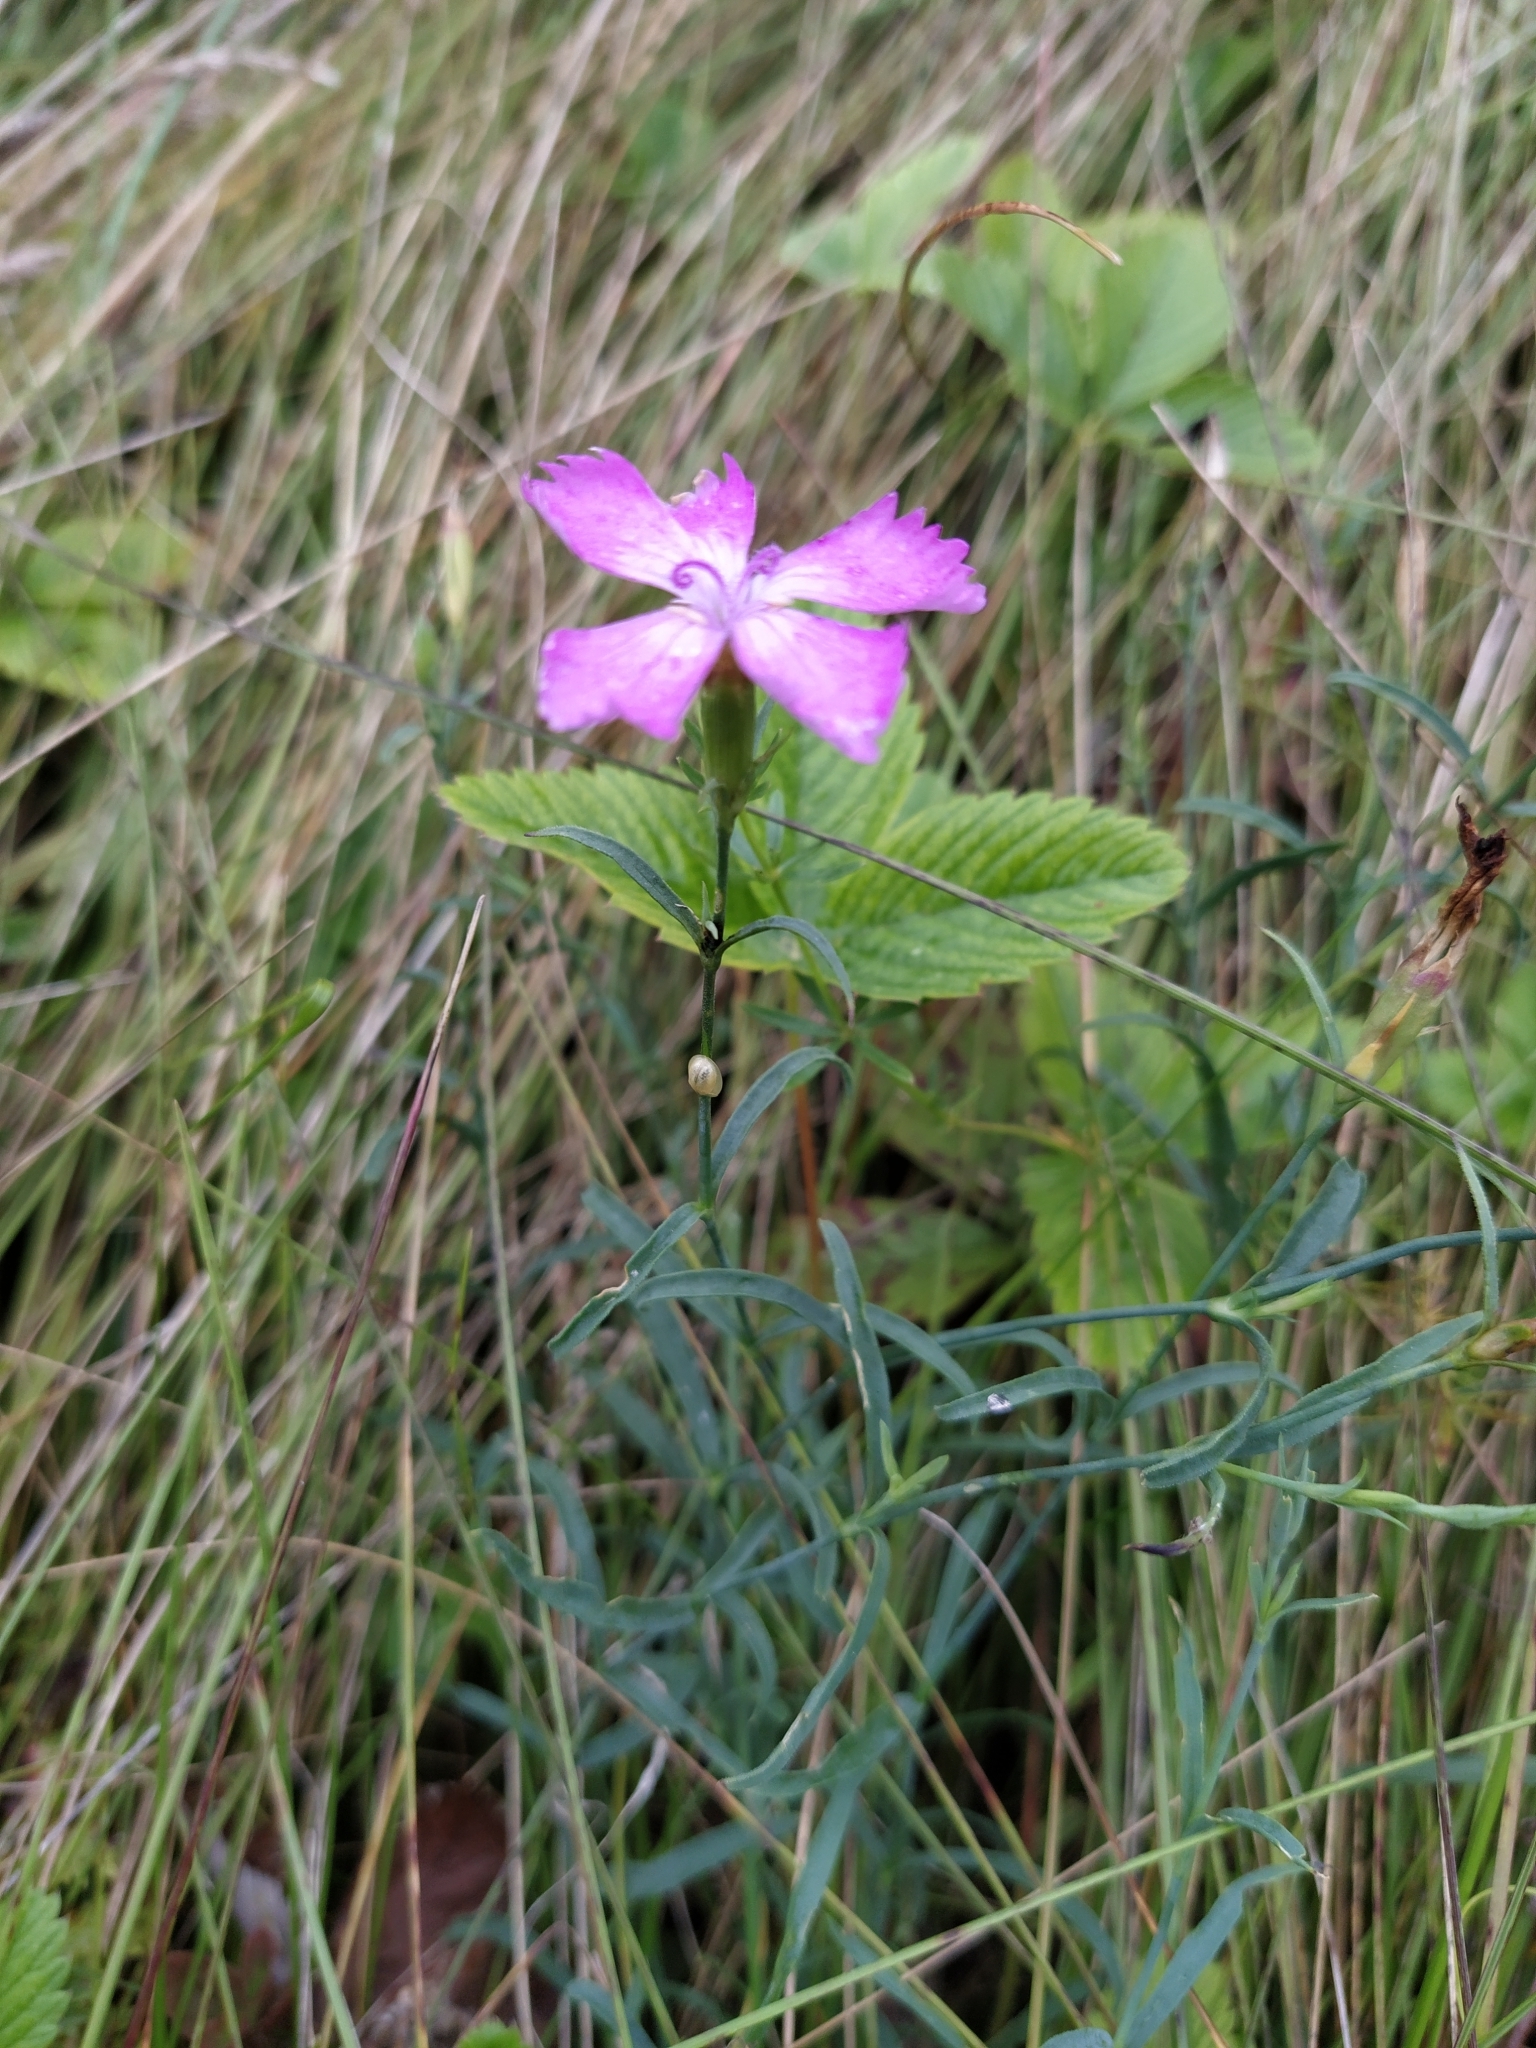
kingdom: Plantae
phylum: Tracheophyta
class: Magnoliopsida
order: Caryophyllales
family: Caryophyllaceae
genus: Dianthus
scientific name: Dianthus chinensis
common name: Rainbow pink
